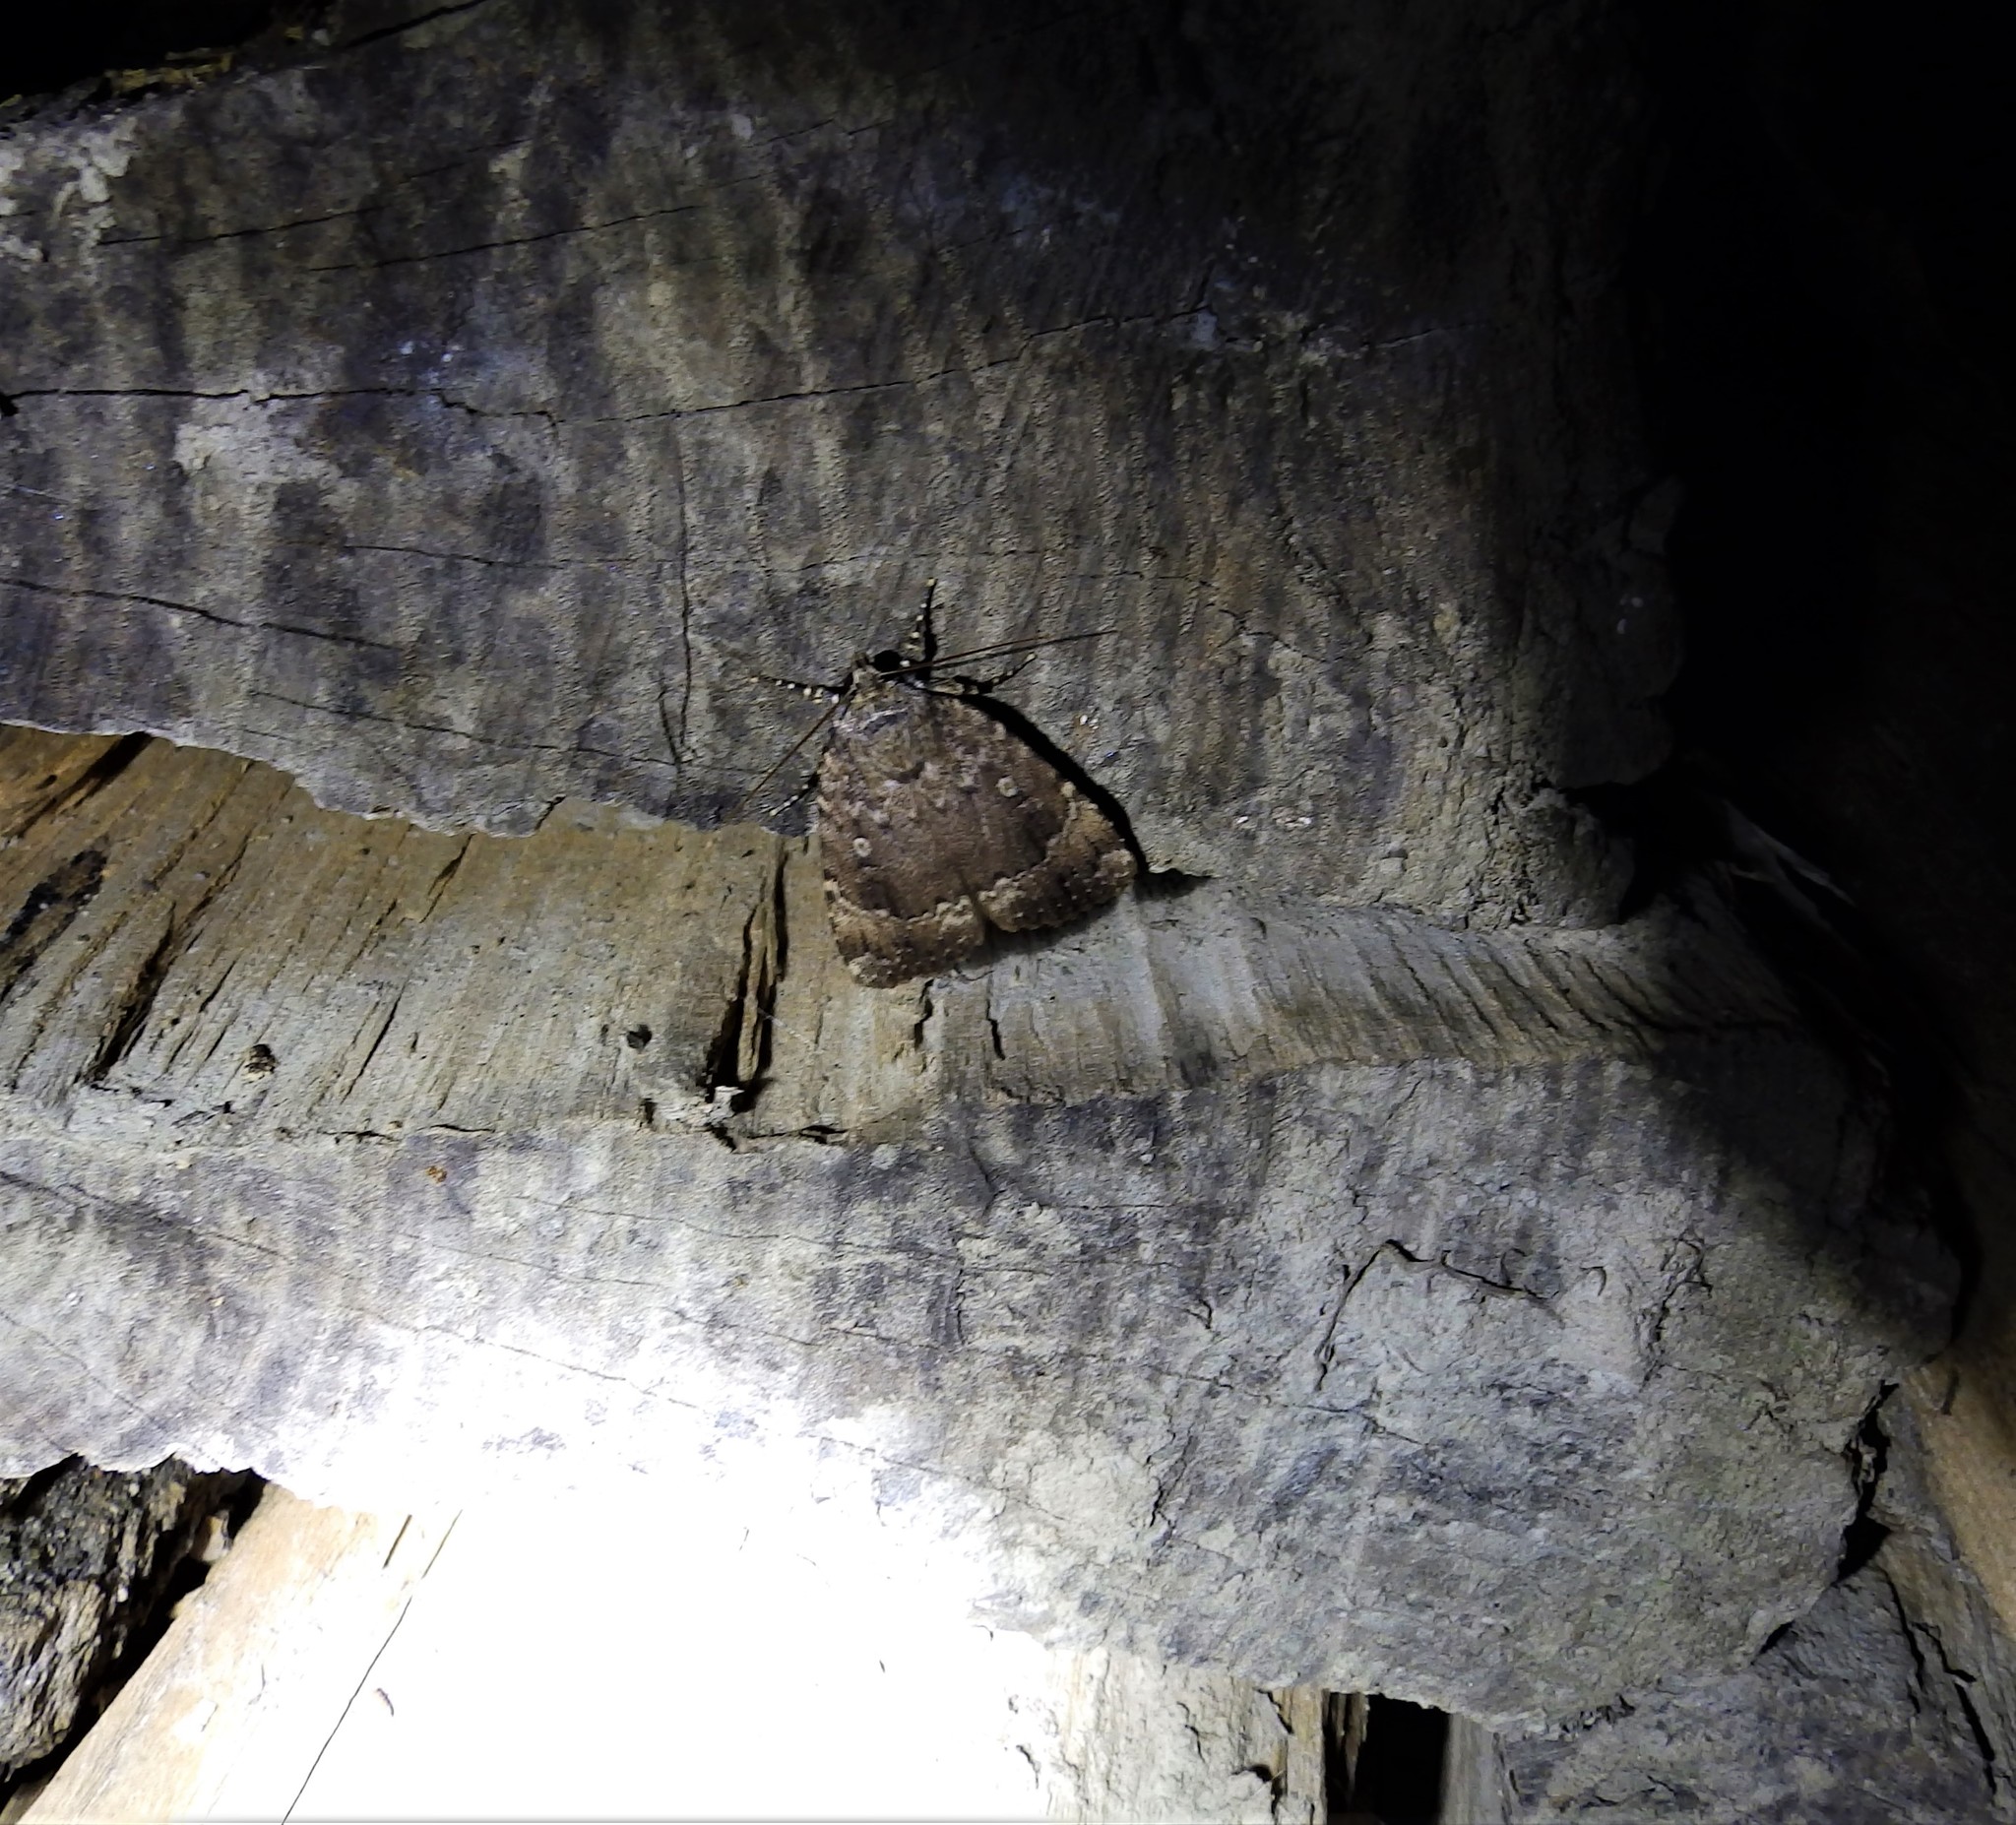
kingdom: Animalia
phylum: Arthropoda
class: Insecta
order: Lepidoptera
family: Noctuidae
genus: Amphipyra
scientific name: Amphipyra pyramidoides
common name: American copper underwing
